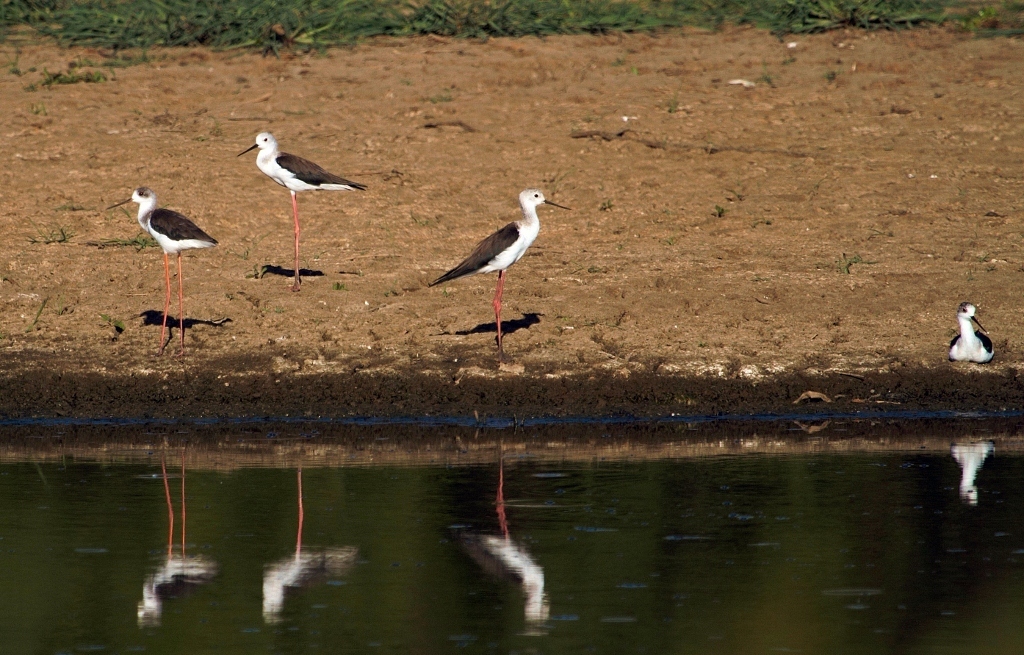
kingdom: Animalia
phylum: Chordata
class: Aves
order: Charadriiformes
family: Recurvirostridae
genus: Himantopus
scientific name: Himantopus himantopus
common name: Black-winged stilt
